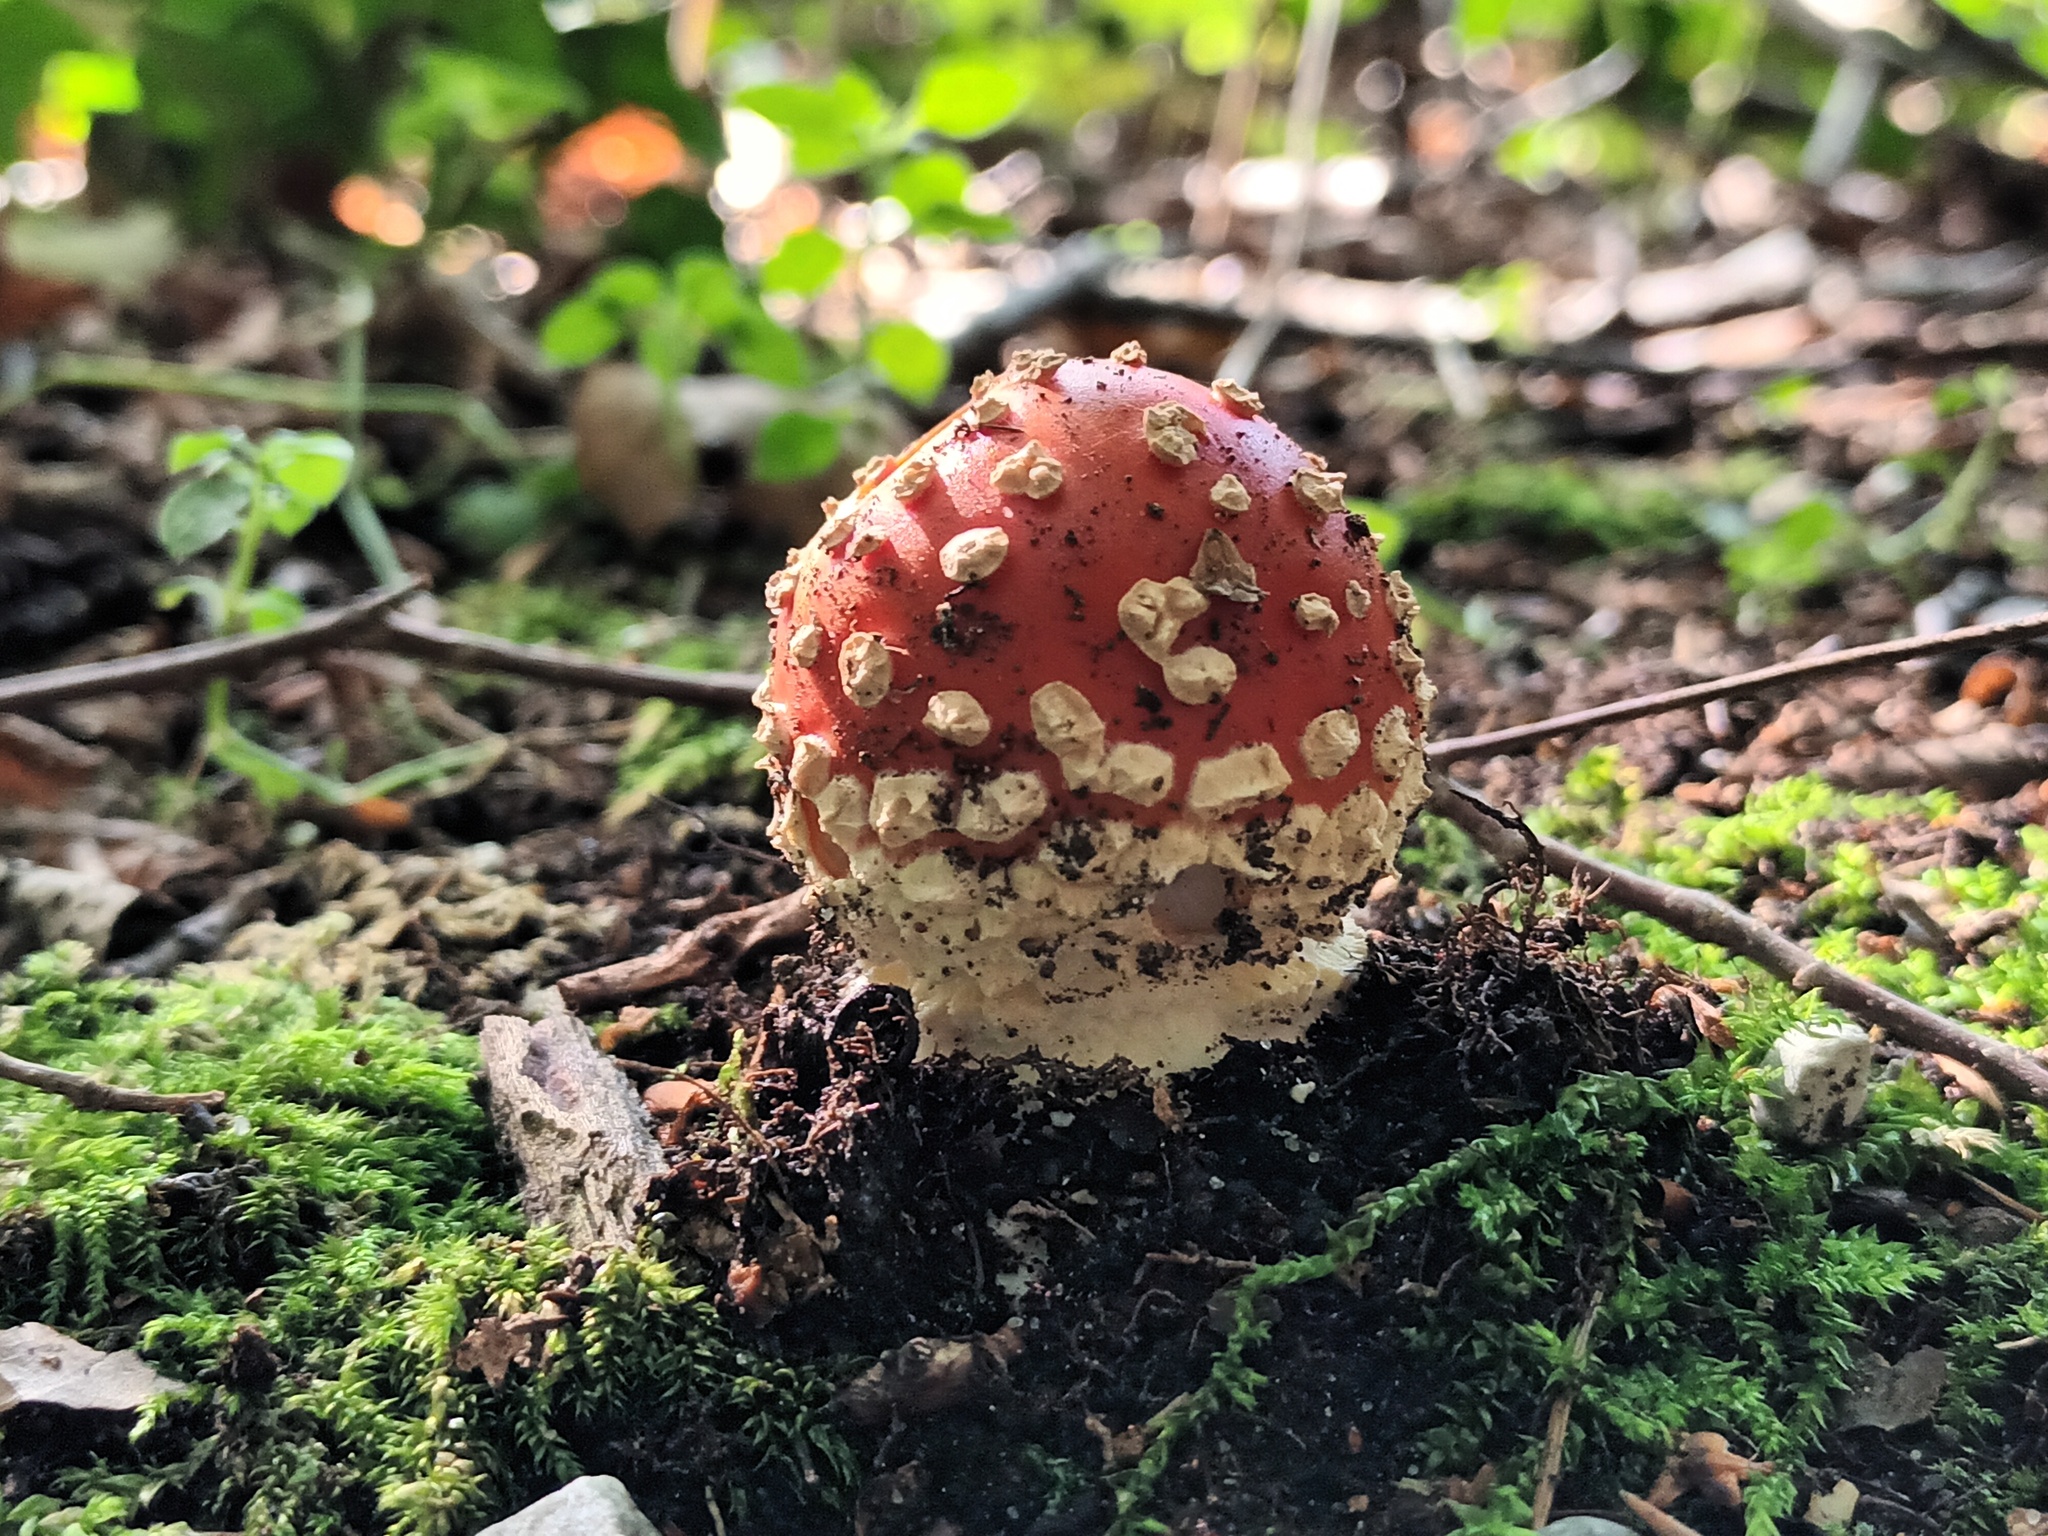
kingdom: Fungi
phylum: Basidiomycota
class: Agaricomycetes
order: Agaricales
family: Amanitaceae
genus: Amanita
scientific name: Amanita muscaria
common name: Fly agaric
